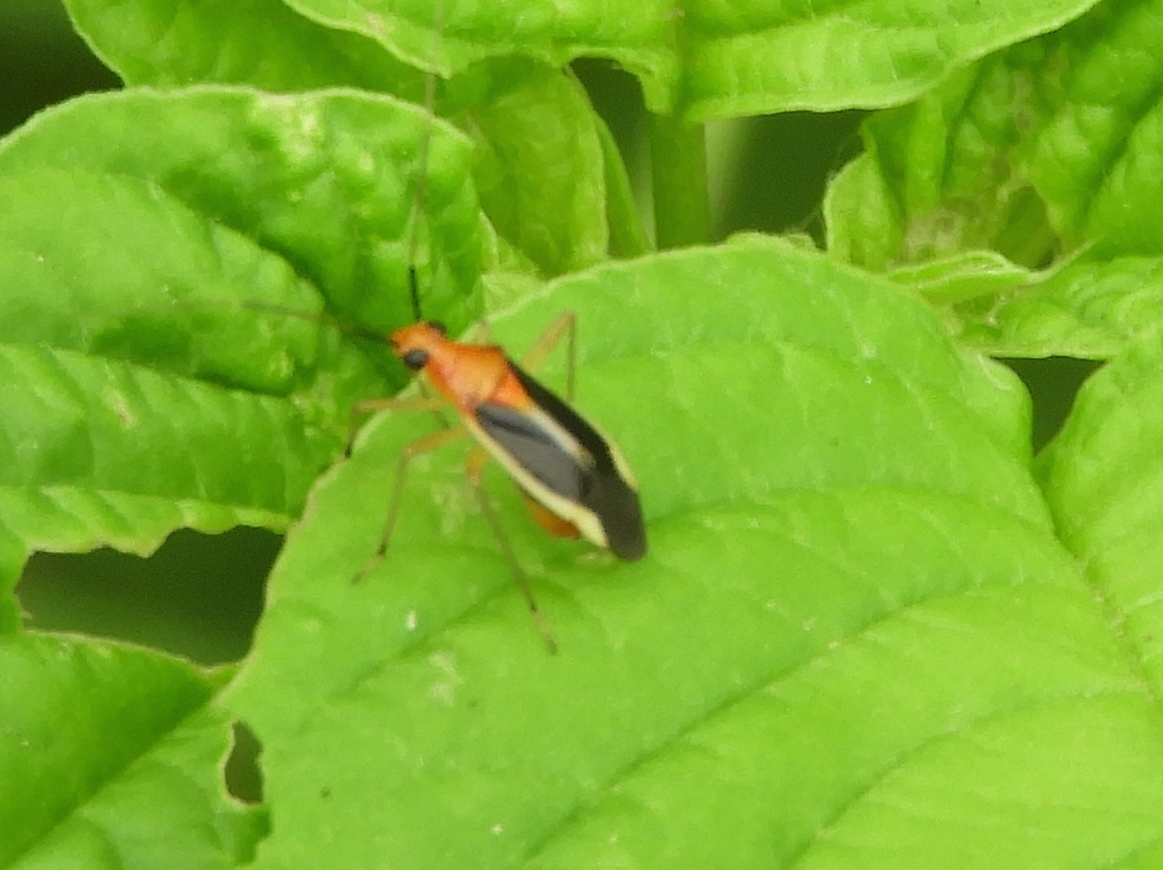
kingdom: Animalia
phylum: Arthropoda
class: Insecta
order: Hemiptera
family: Miridae
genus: Ganocapsus
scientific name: Ganocapsus filiformis
